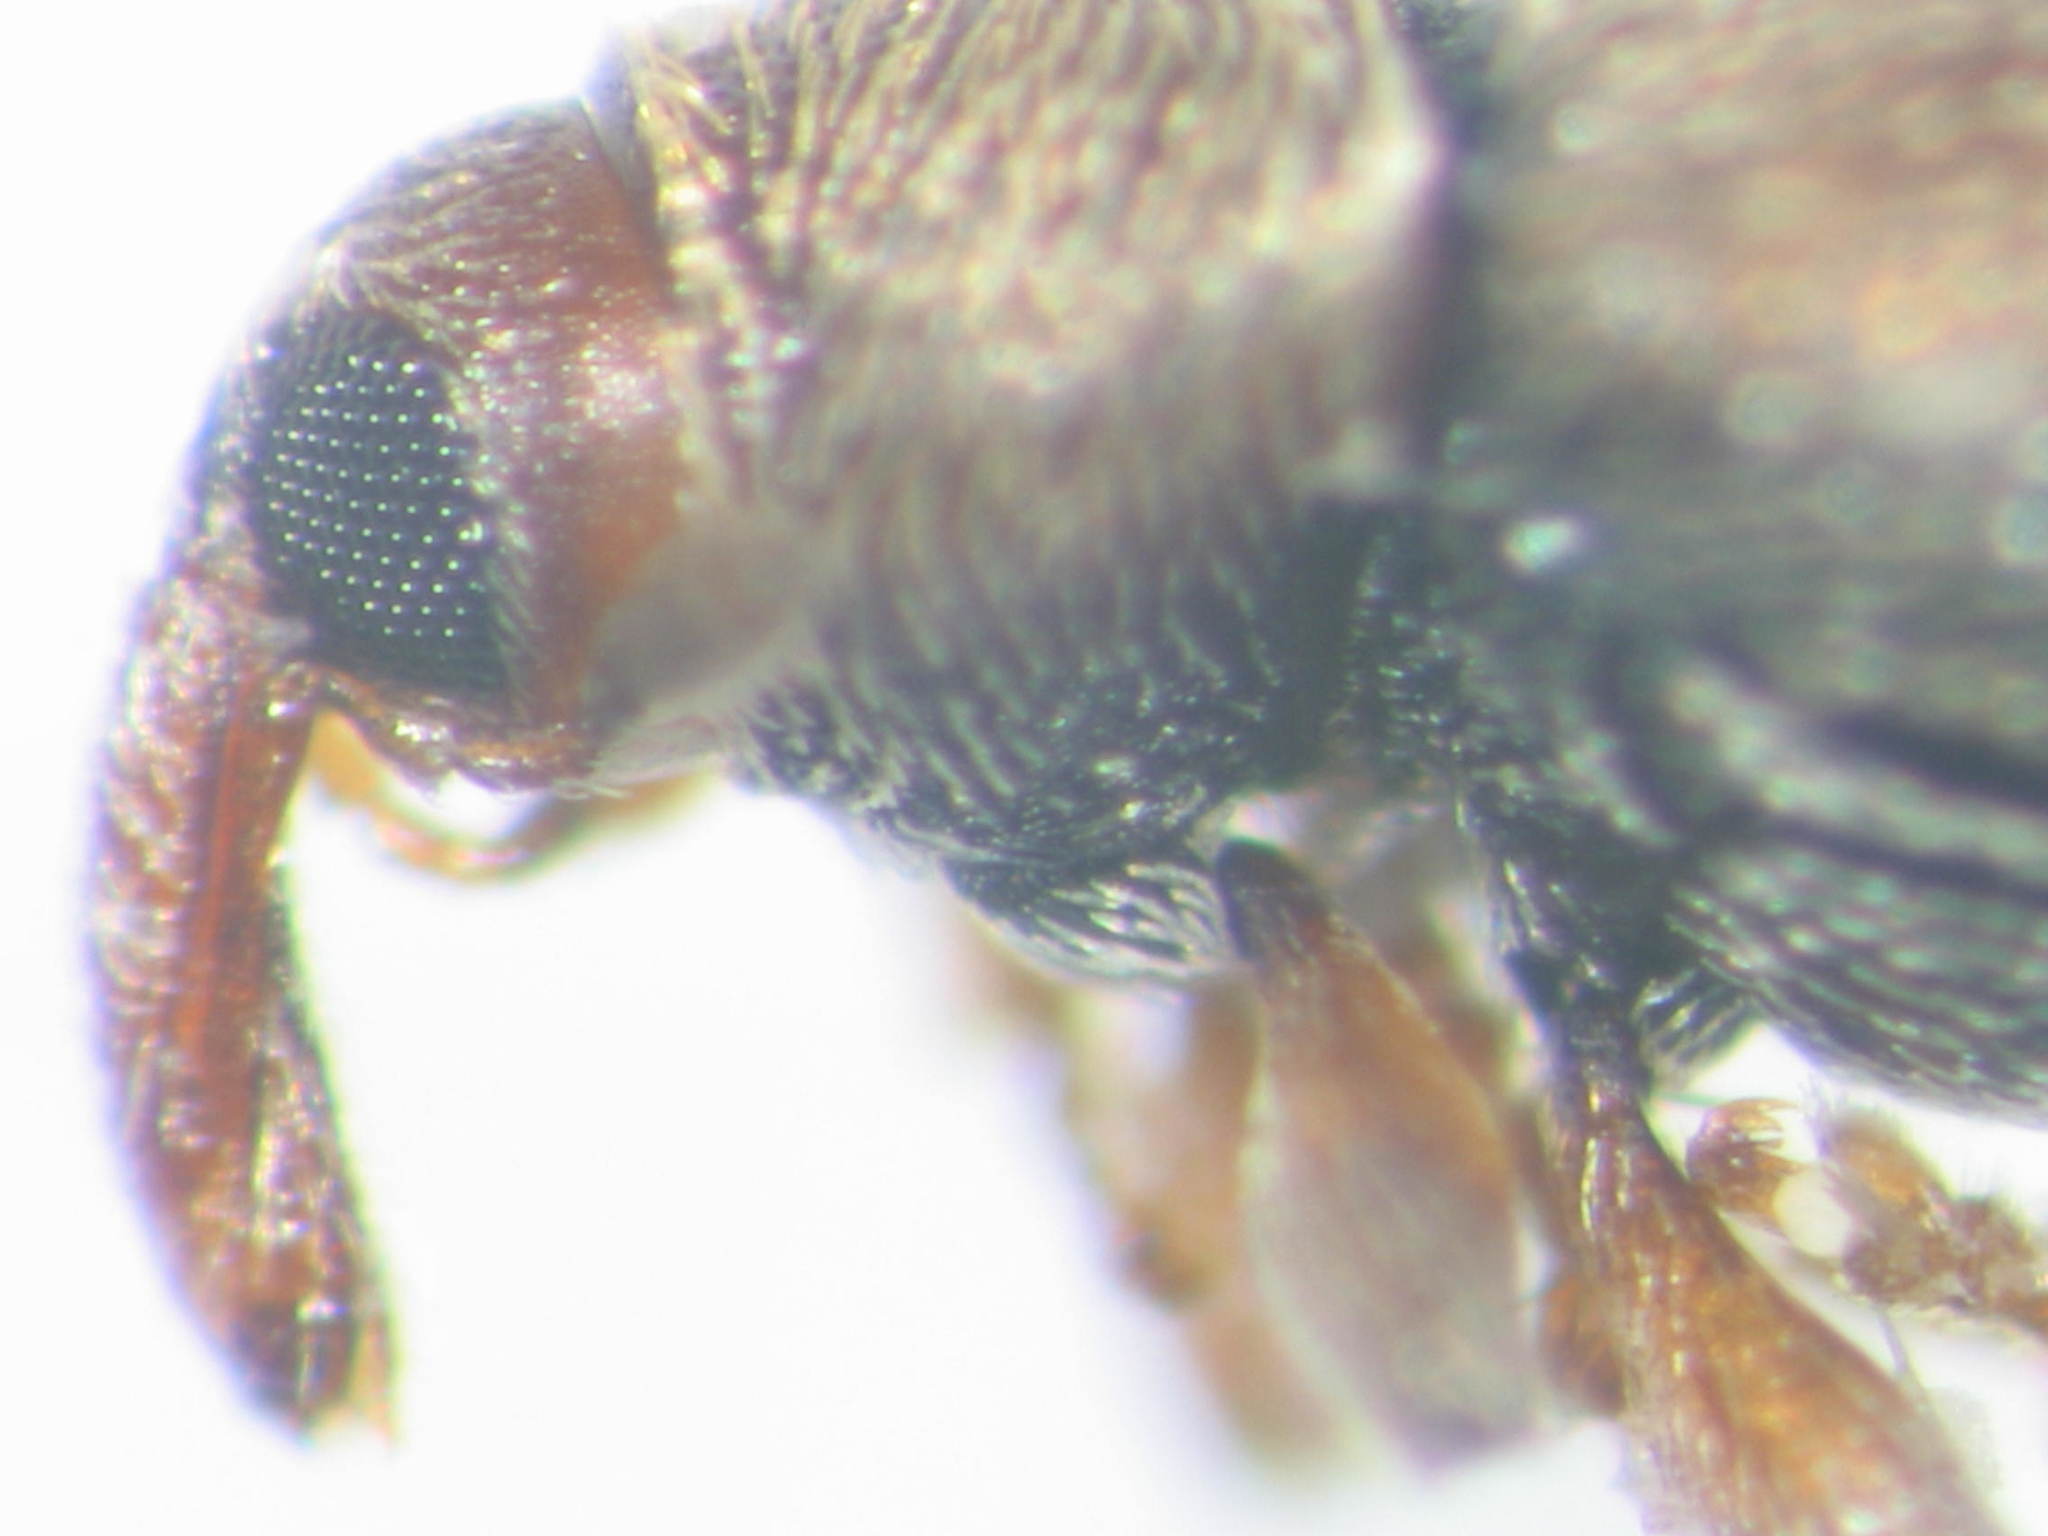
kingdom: Animalia
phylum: Arthropoda
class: Insecta
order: Coleoptera
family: Curculionidae
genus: Dyschoenium
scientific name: Dyschoenium minutissimum
